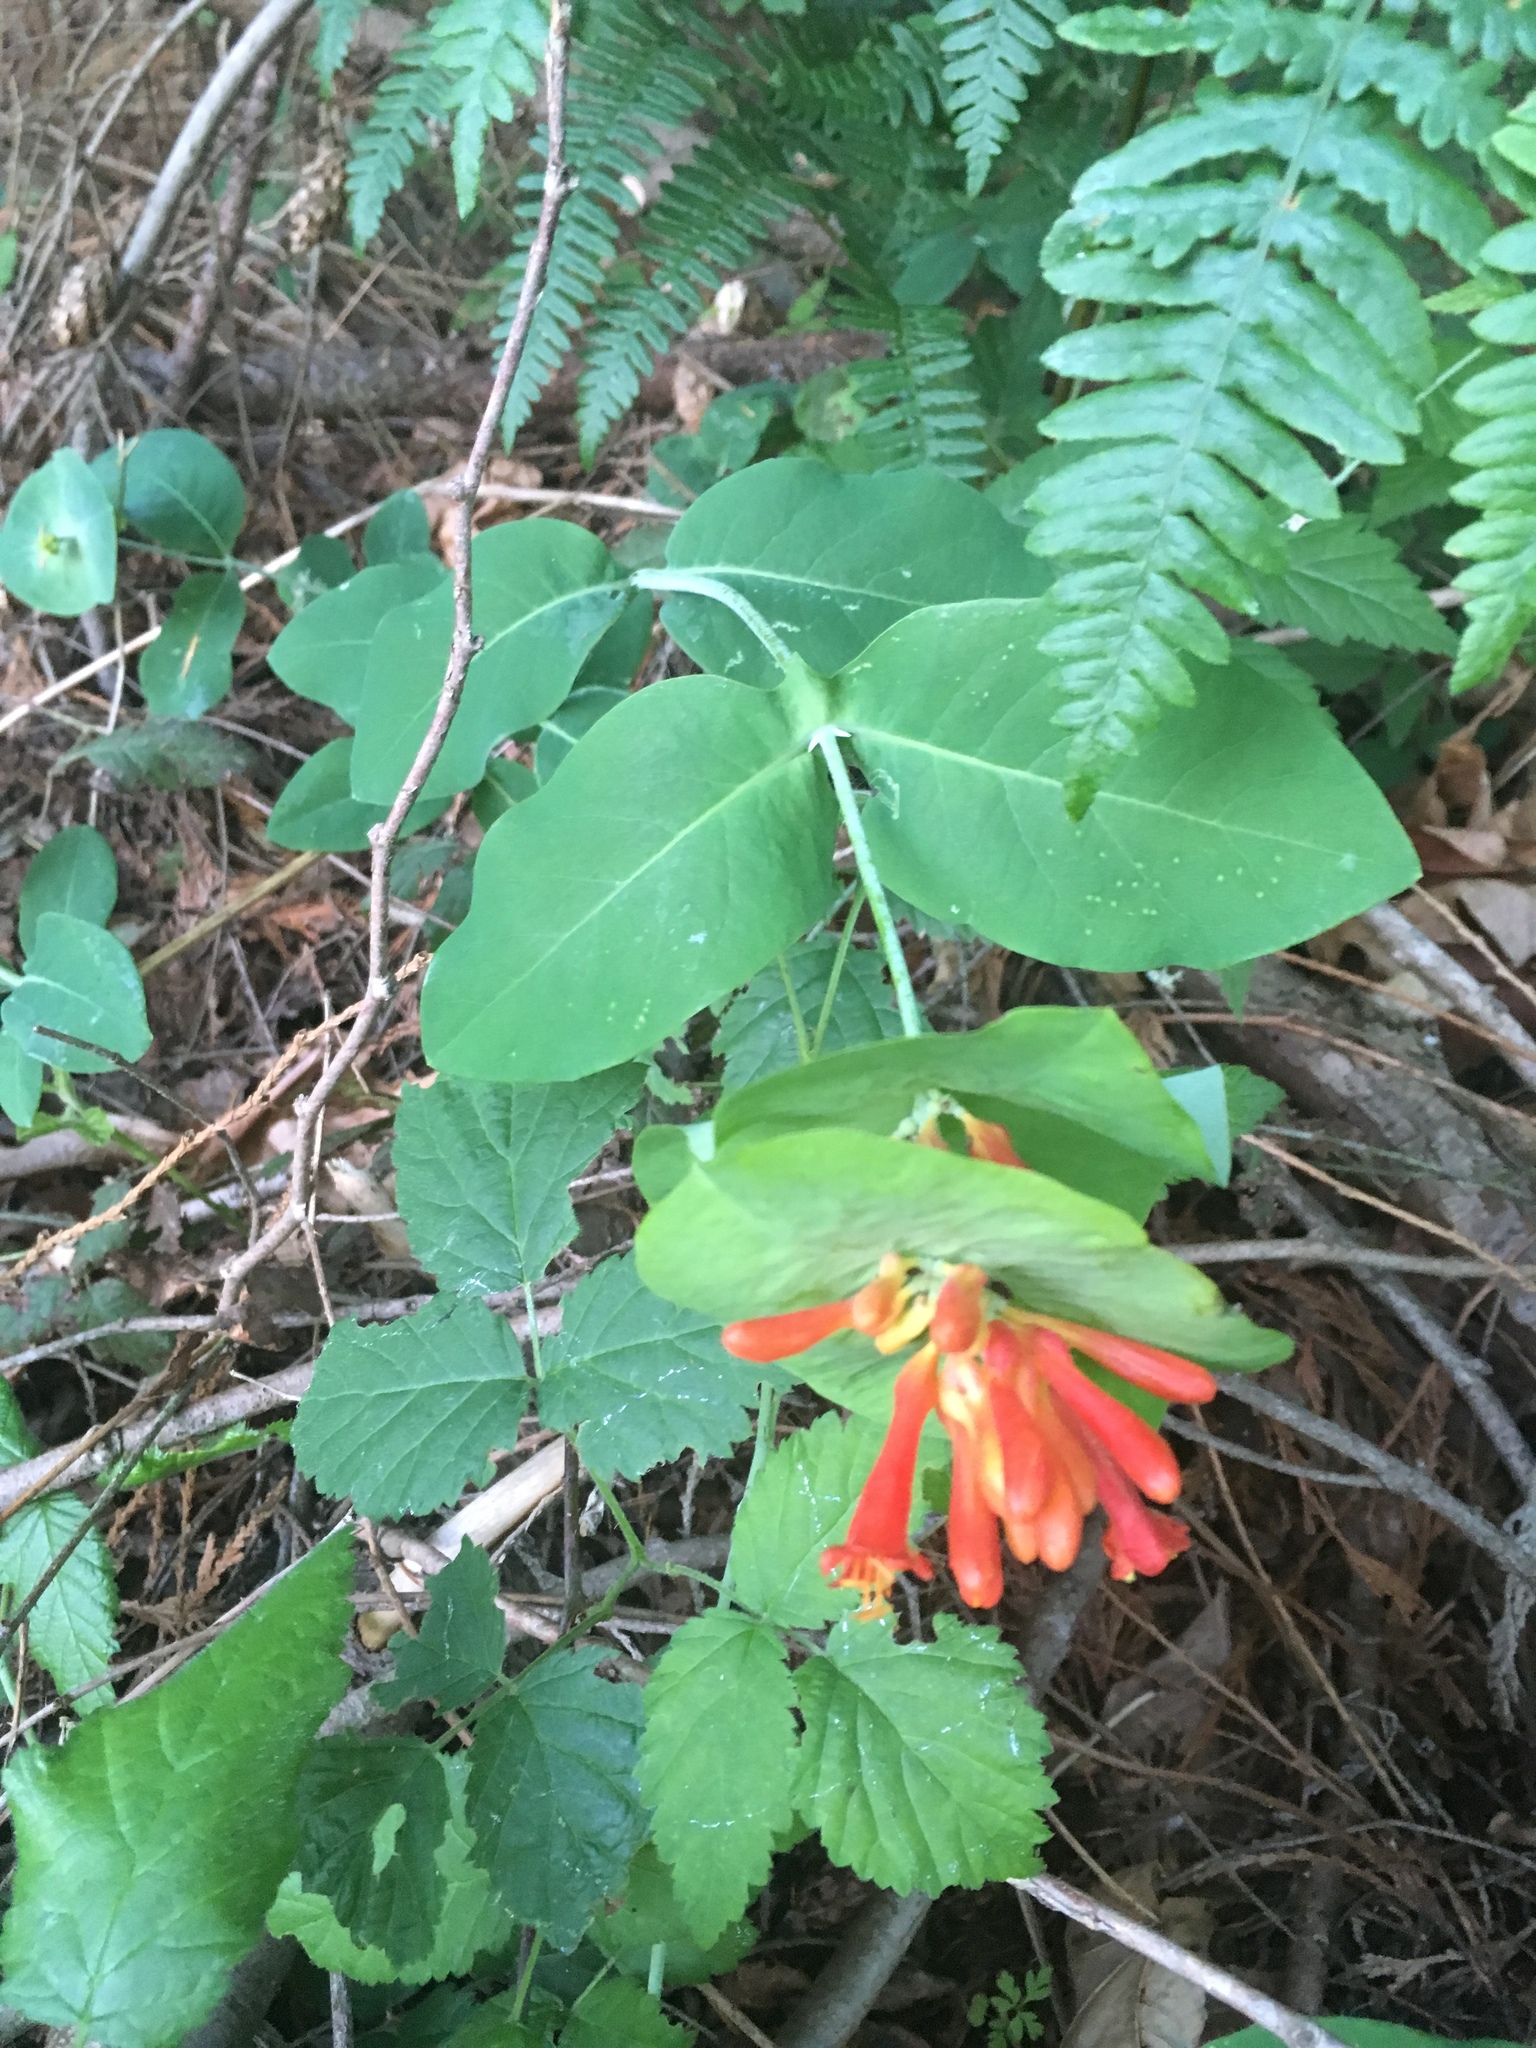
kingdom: Plantae
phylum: Tracheophyta
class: Magnoliopsida
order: Dipsacales
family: Caprifoliaceae
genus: Lonicera
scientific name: Lonicera ciliosa
